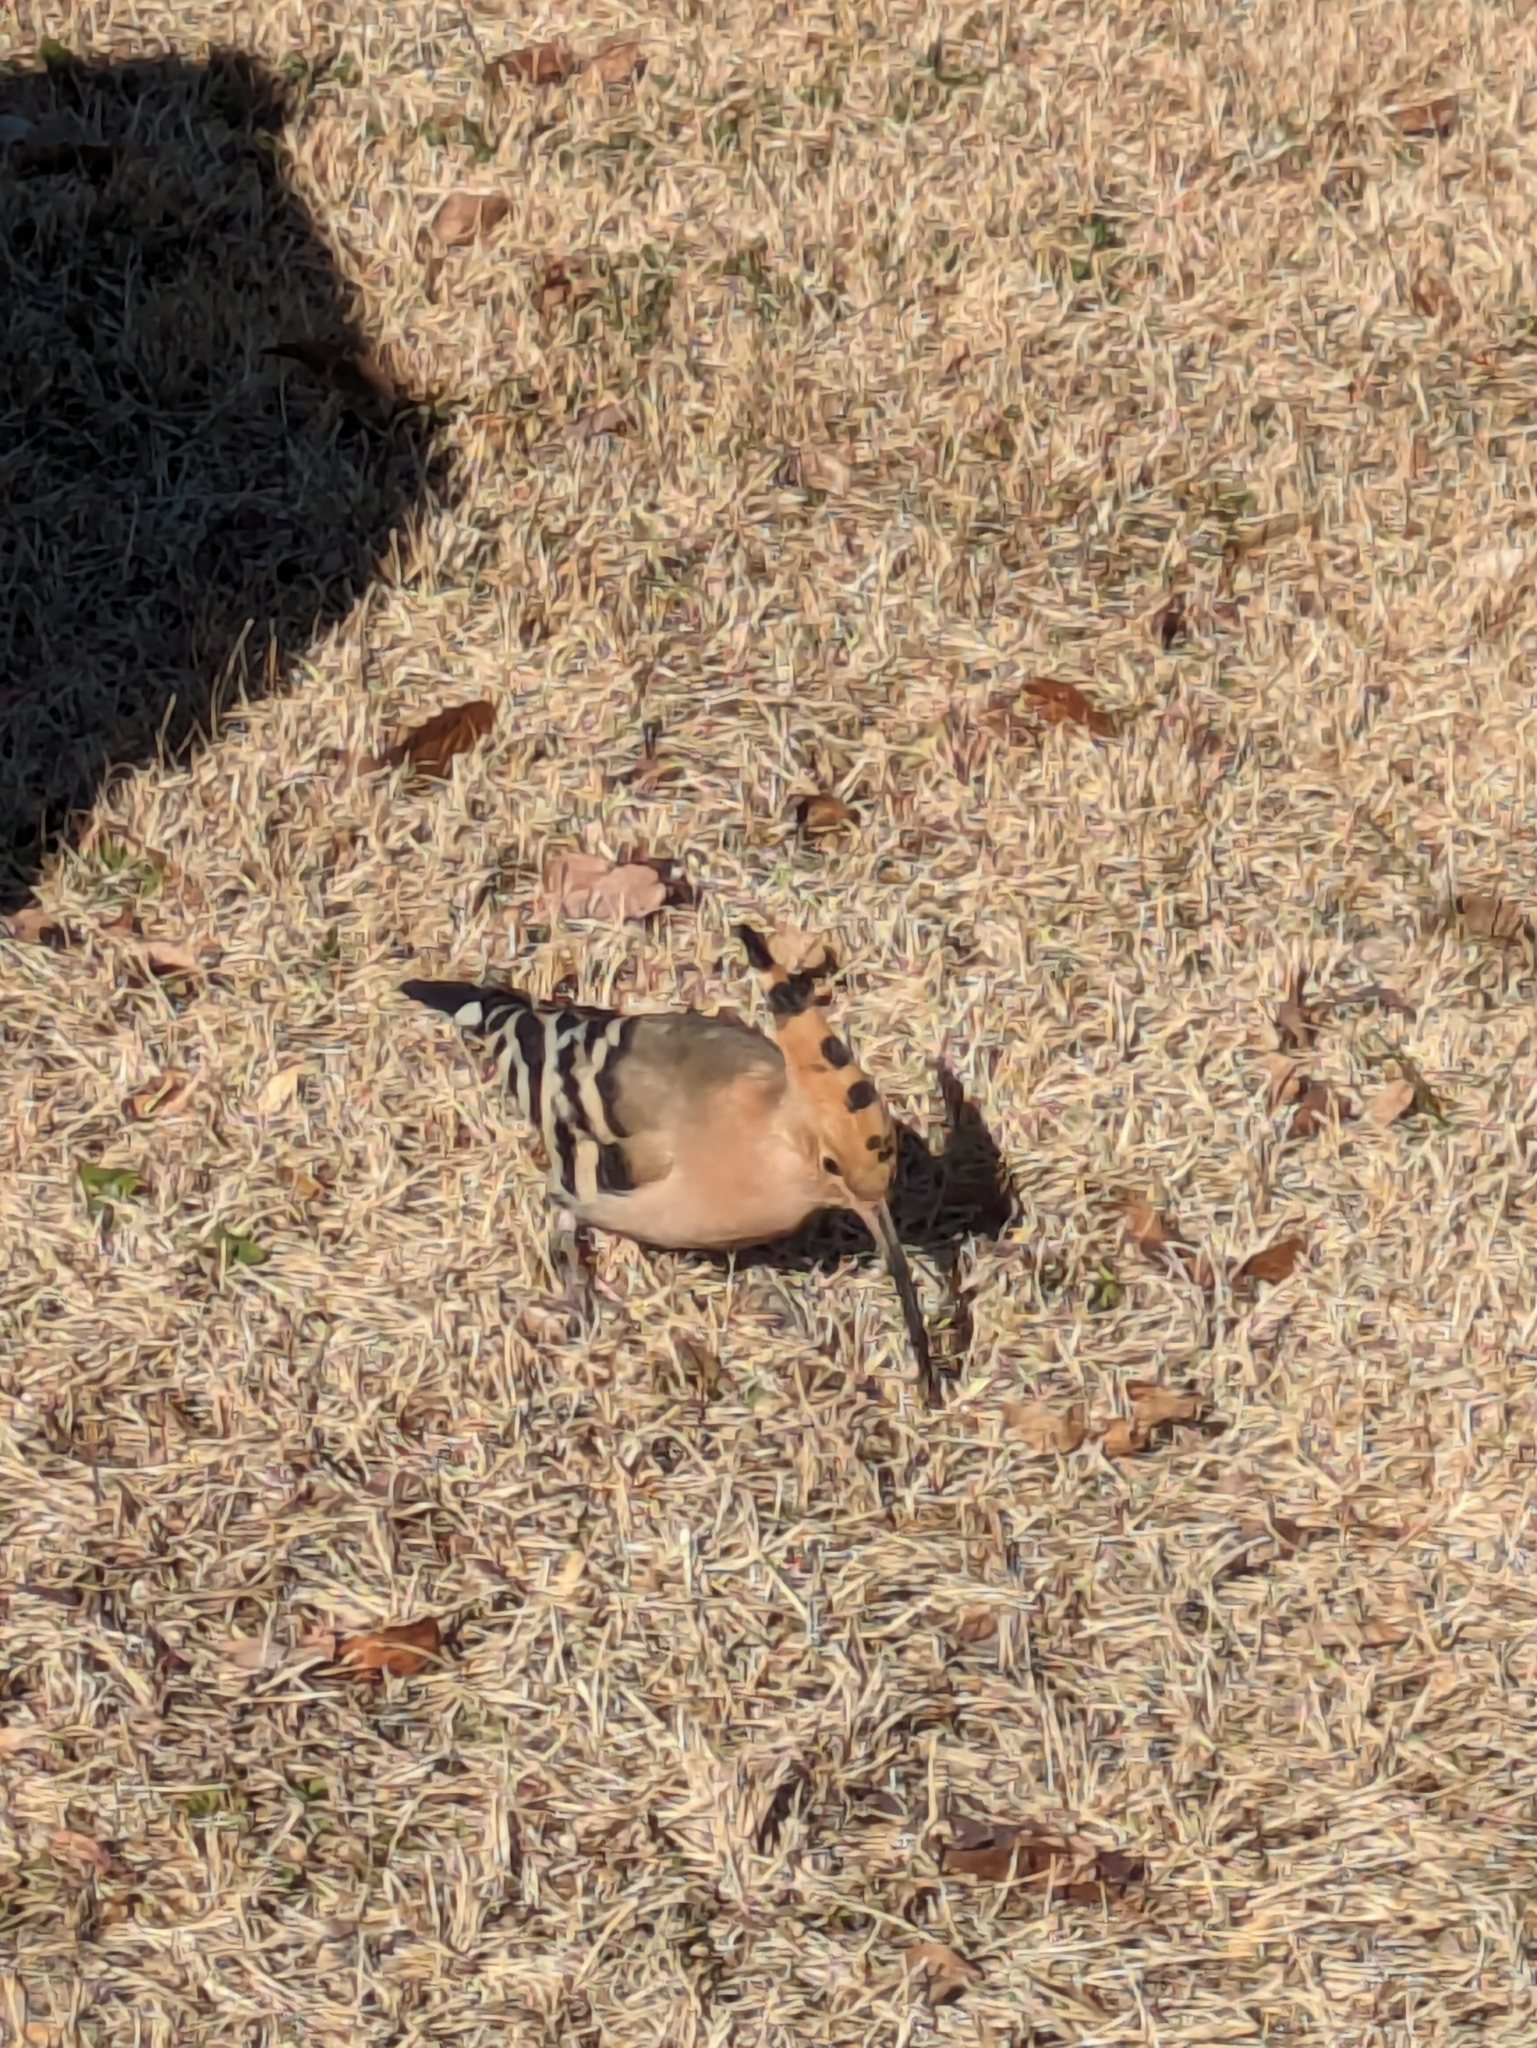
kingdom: Animalia
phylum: Chordata
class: Aves
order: Bucerotiformes
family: Upupidae
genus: Upupa
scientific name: Upupa epops
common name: Eurasian hoopoe
